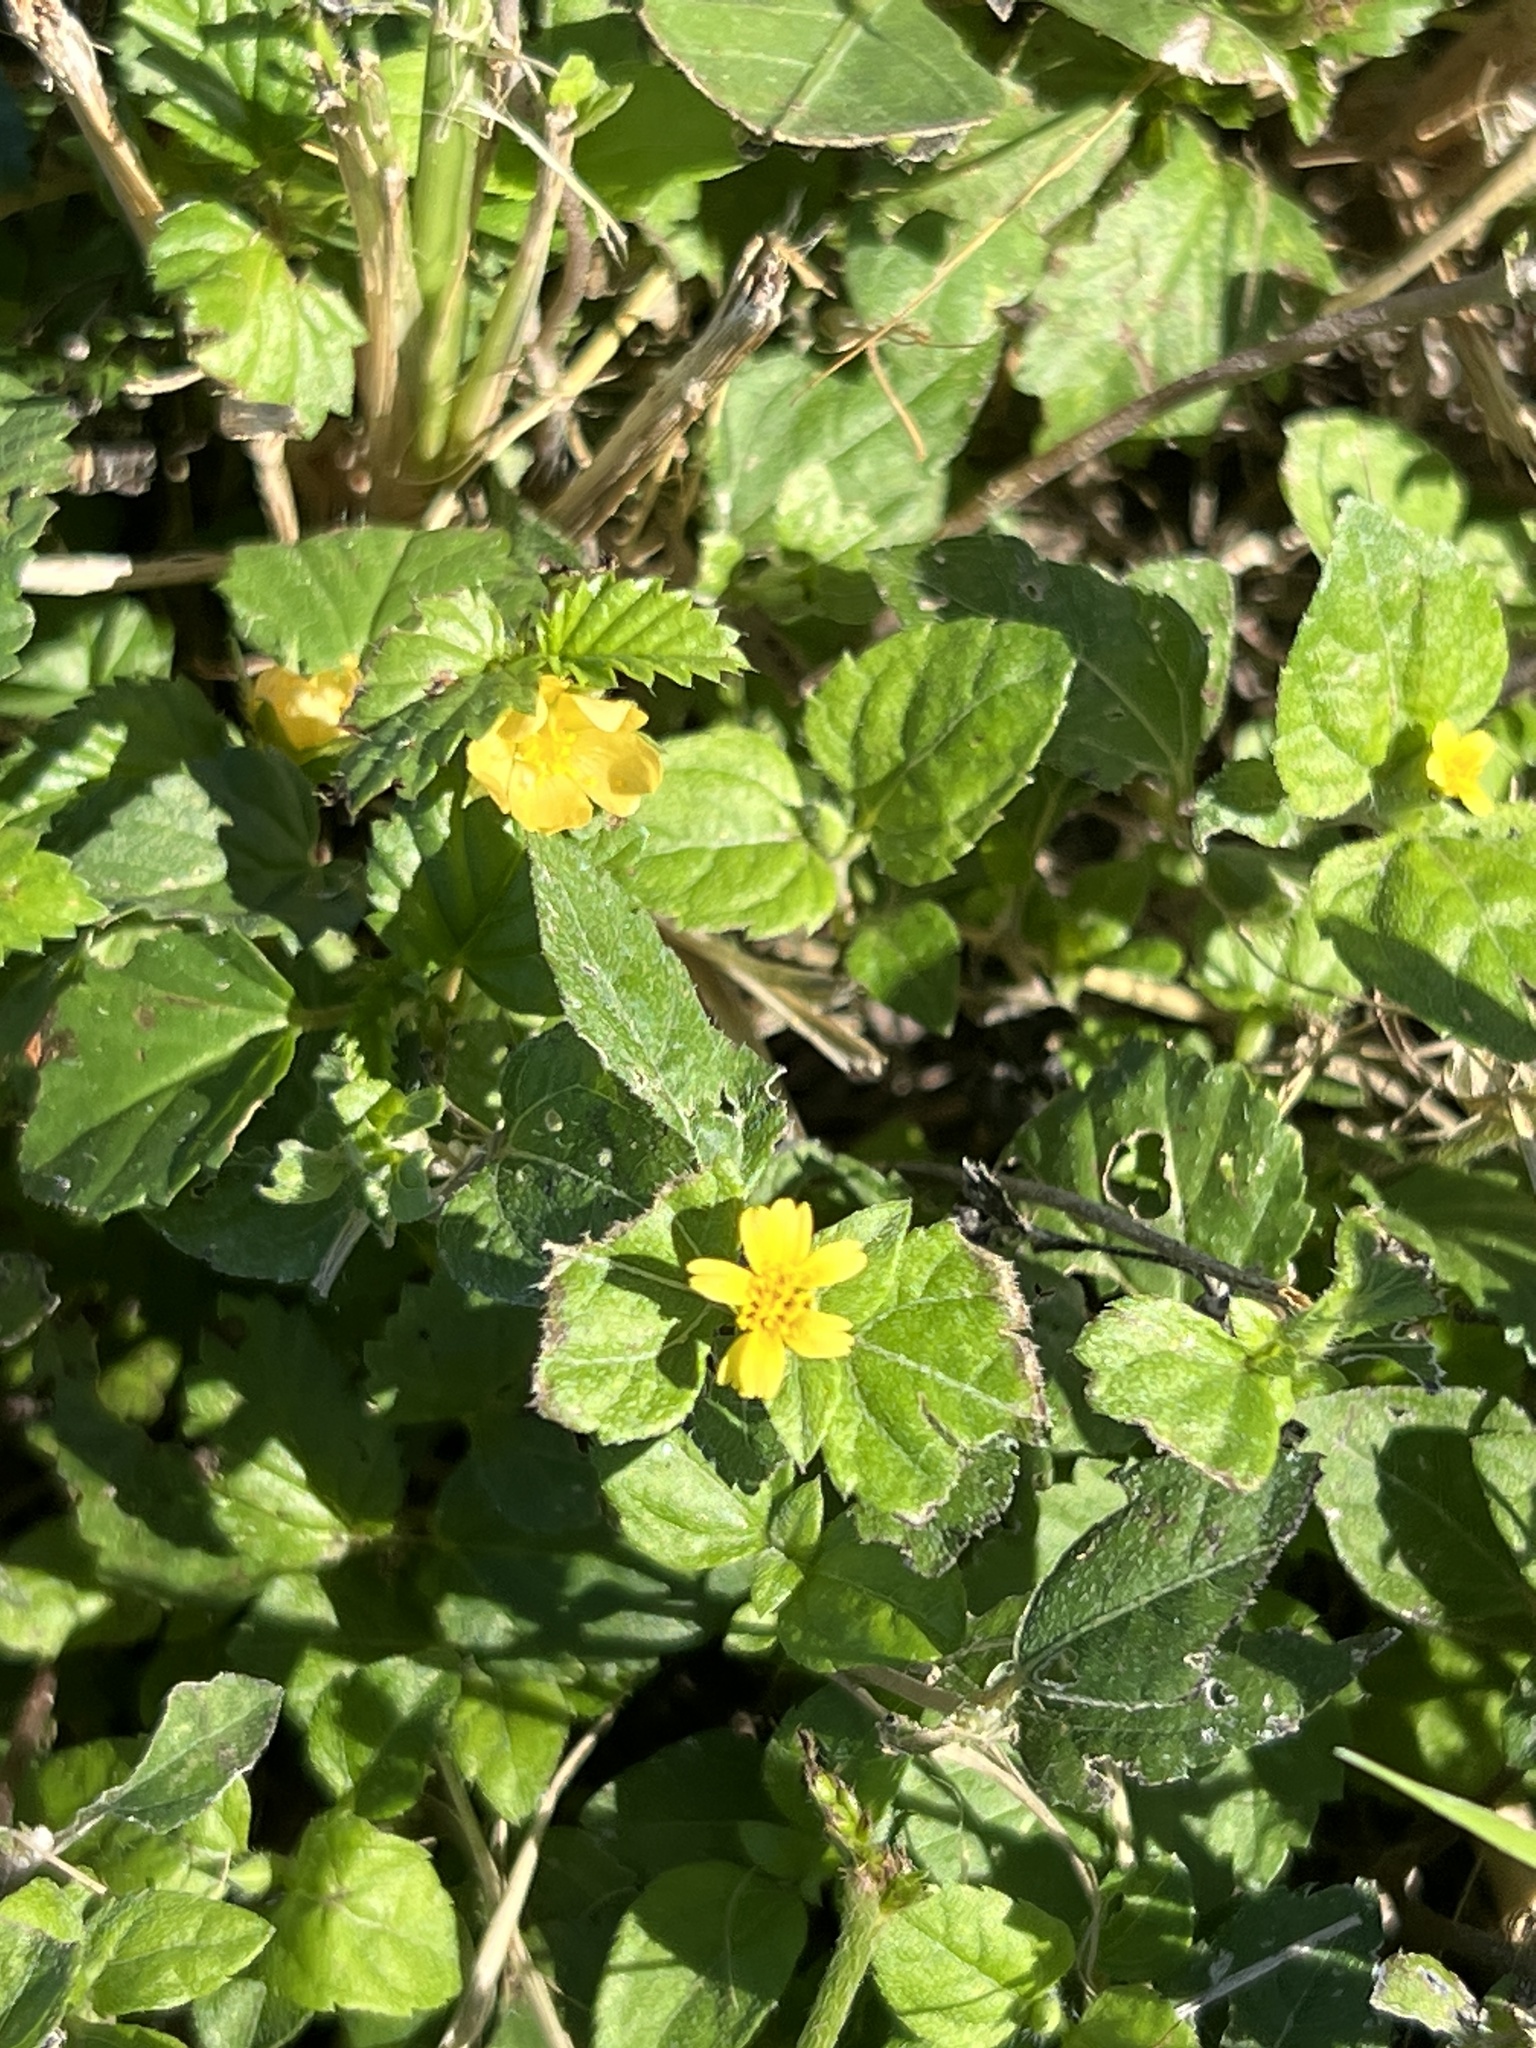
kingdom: Plantae
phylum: Tracheophyta
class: Magnoliopsida
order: Asterales
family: Asteraceae
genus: Calyptocarpus
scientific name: Calyptocarpus vialis
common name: Straggler daisy
